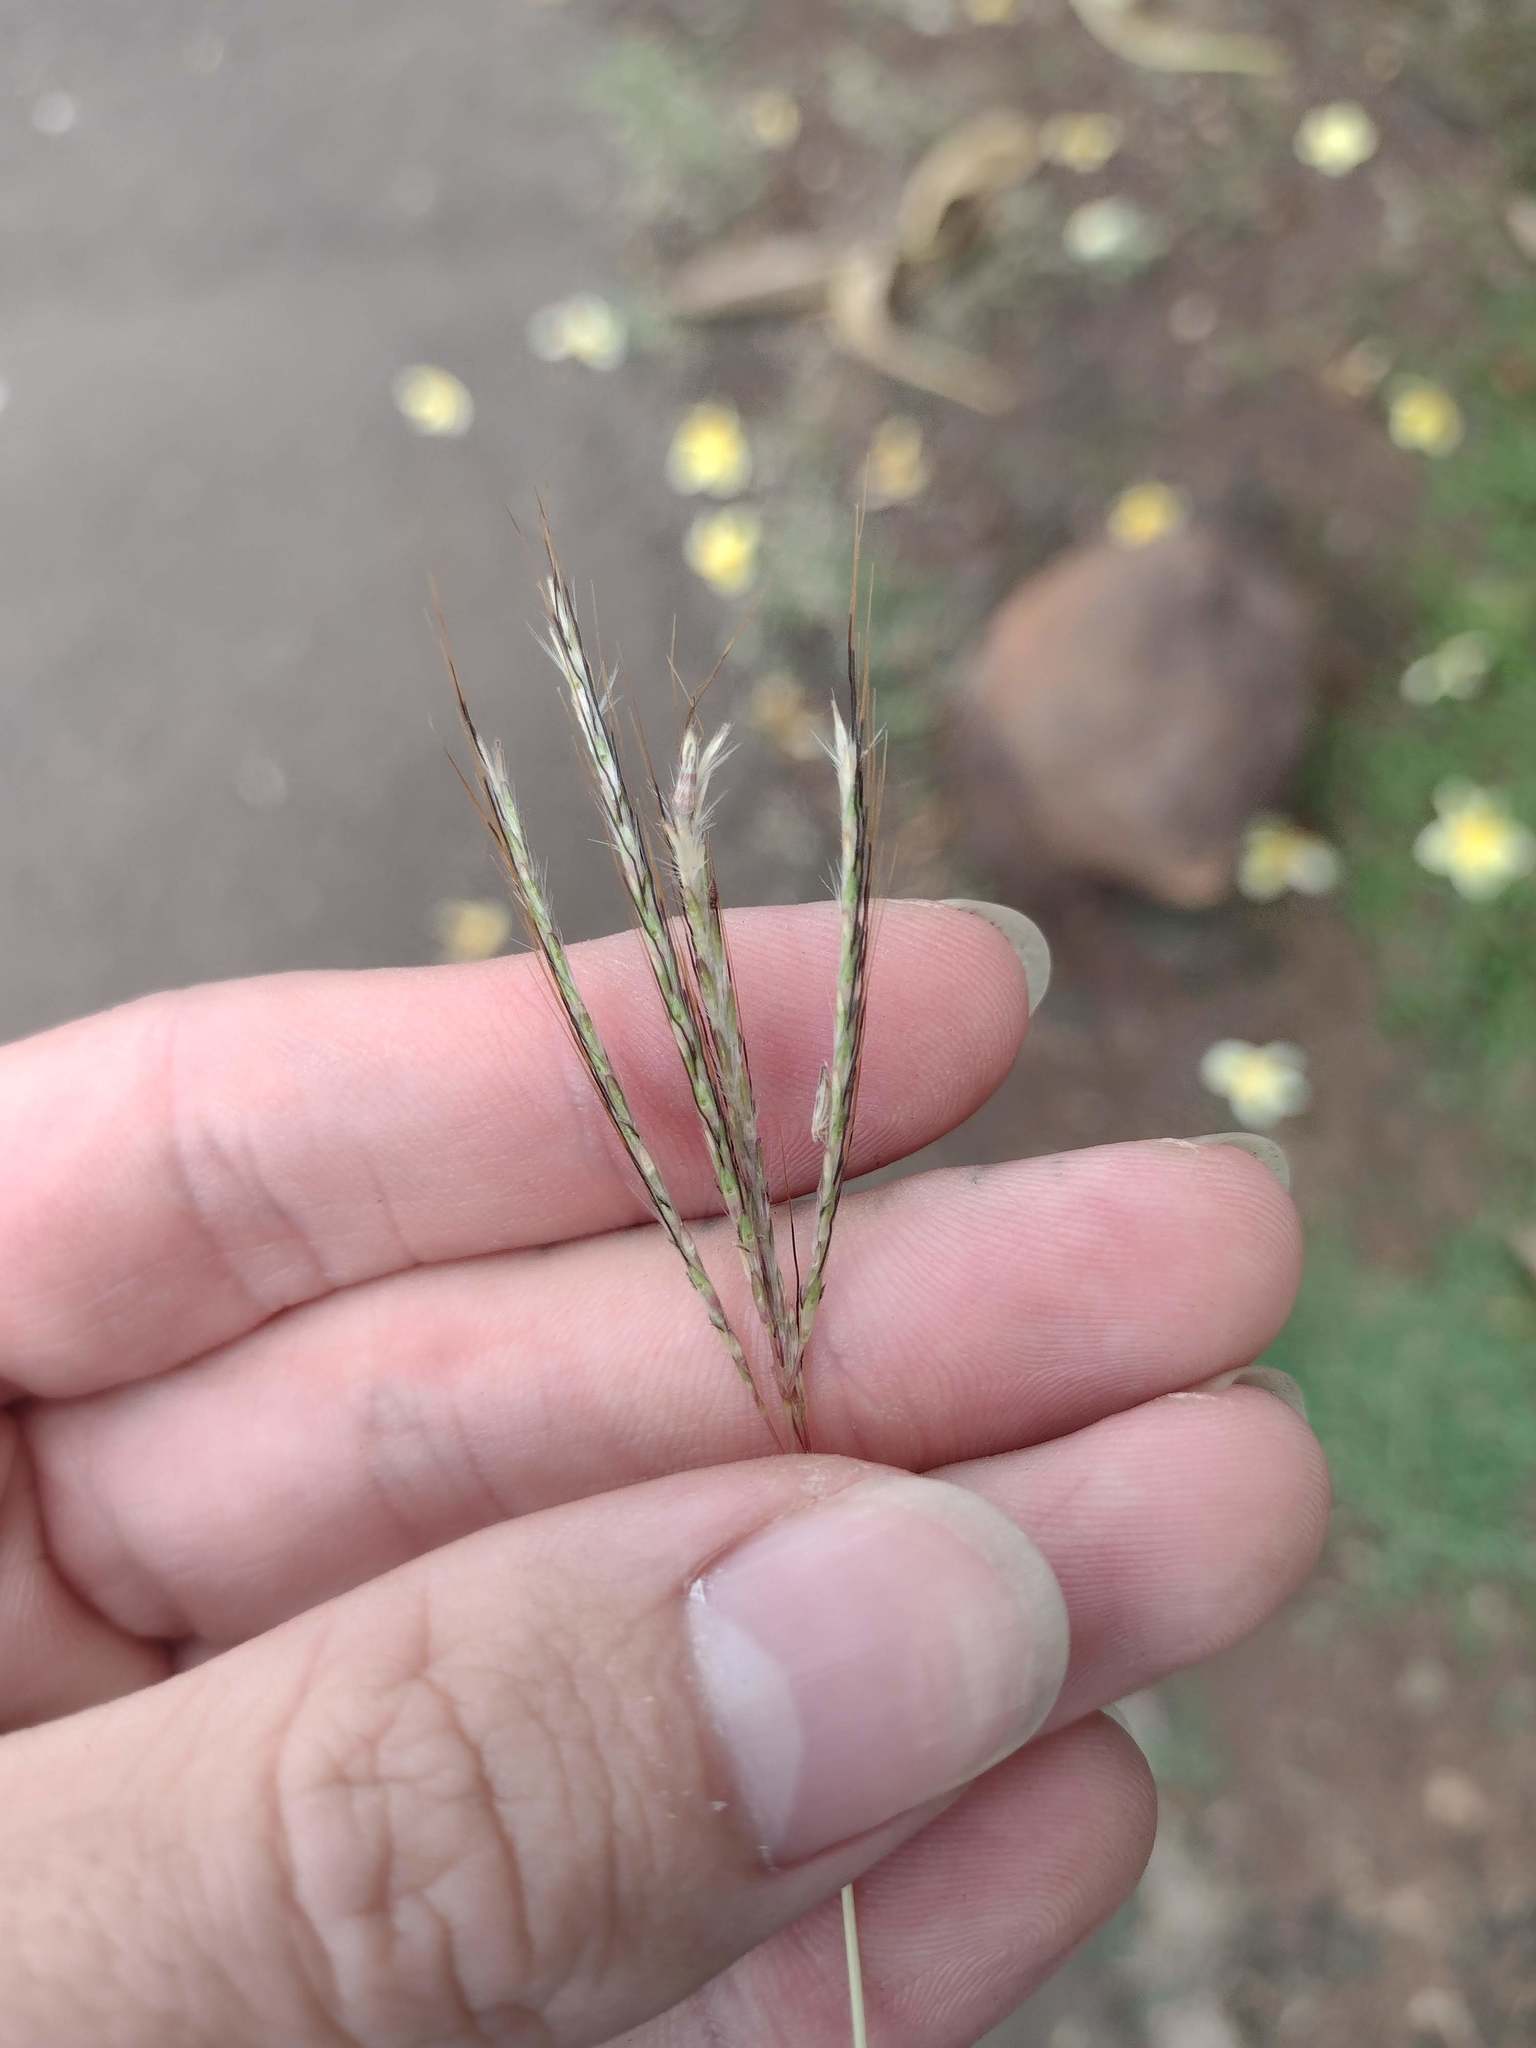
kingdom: Plantae
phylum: Tracheophyta
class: Liliopsida
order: Poales
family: Poaceae
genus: Bothriochloa
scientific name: Bothriochloa pertusa
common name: Pitted beardgrass
